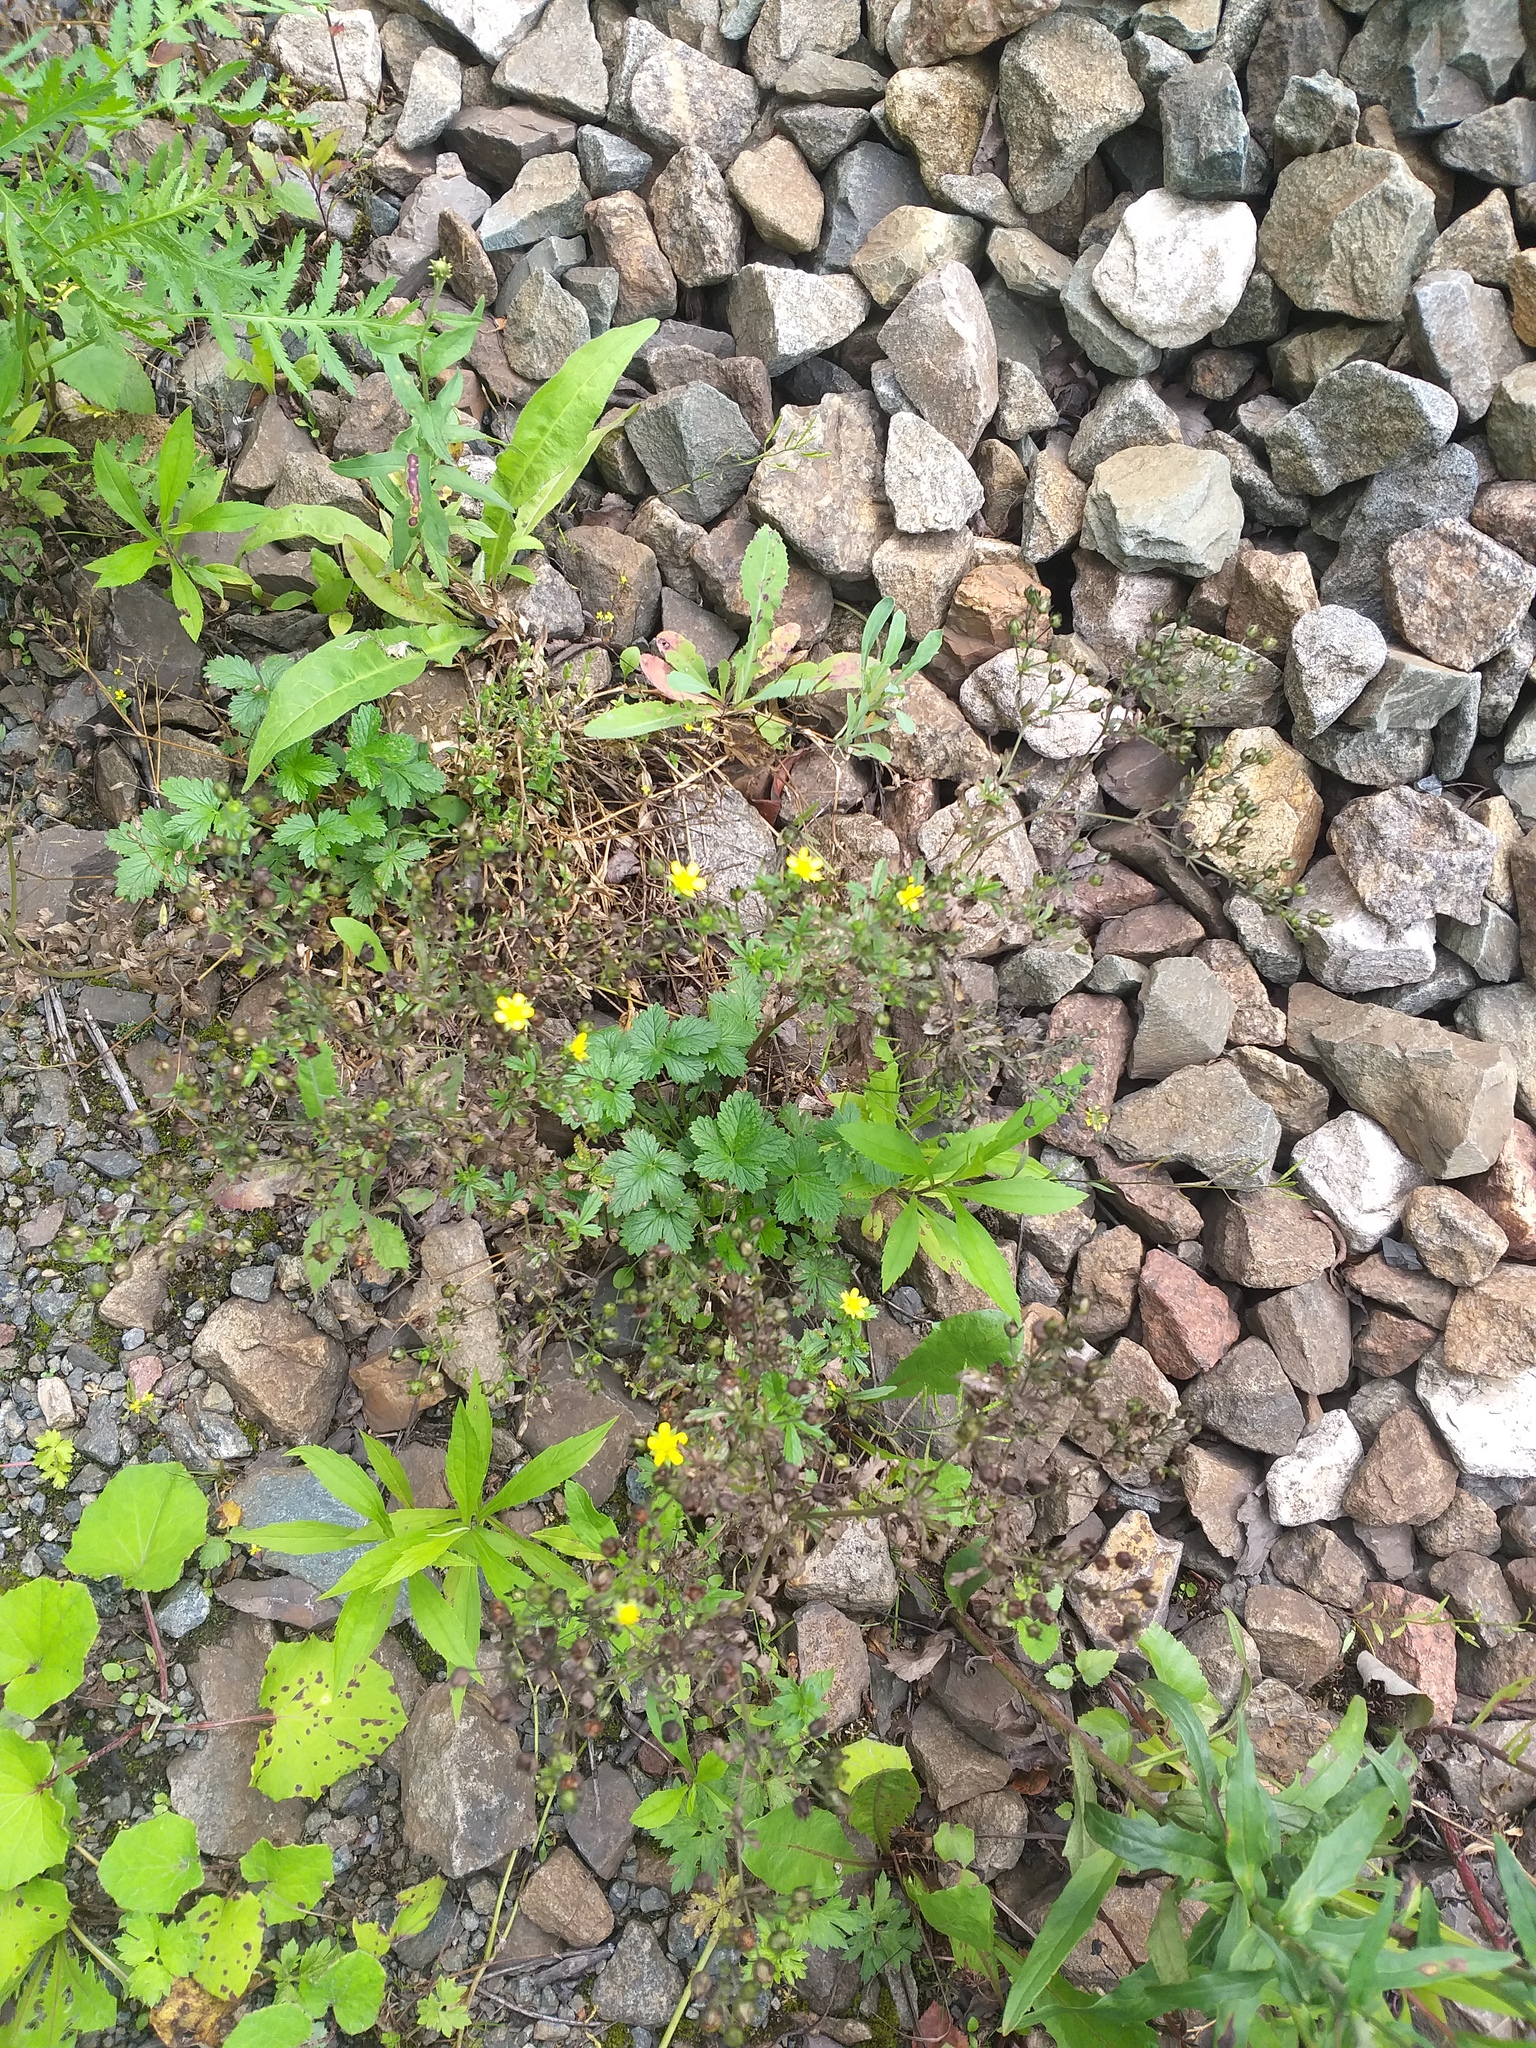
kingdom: Plantae
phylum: Tracheophyta
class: Magnoliopsida
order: Rosales
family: Rosaceae
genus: Potentilla
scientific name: Potentilla intermedia
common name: Downy cinquefoil
